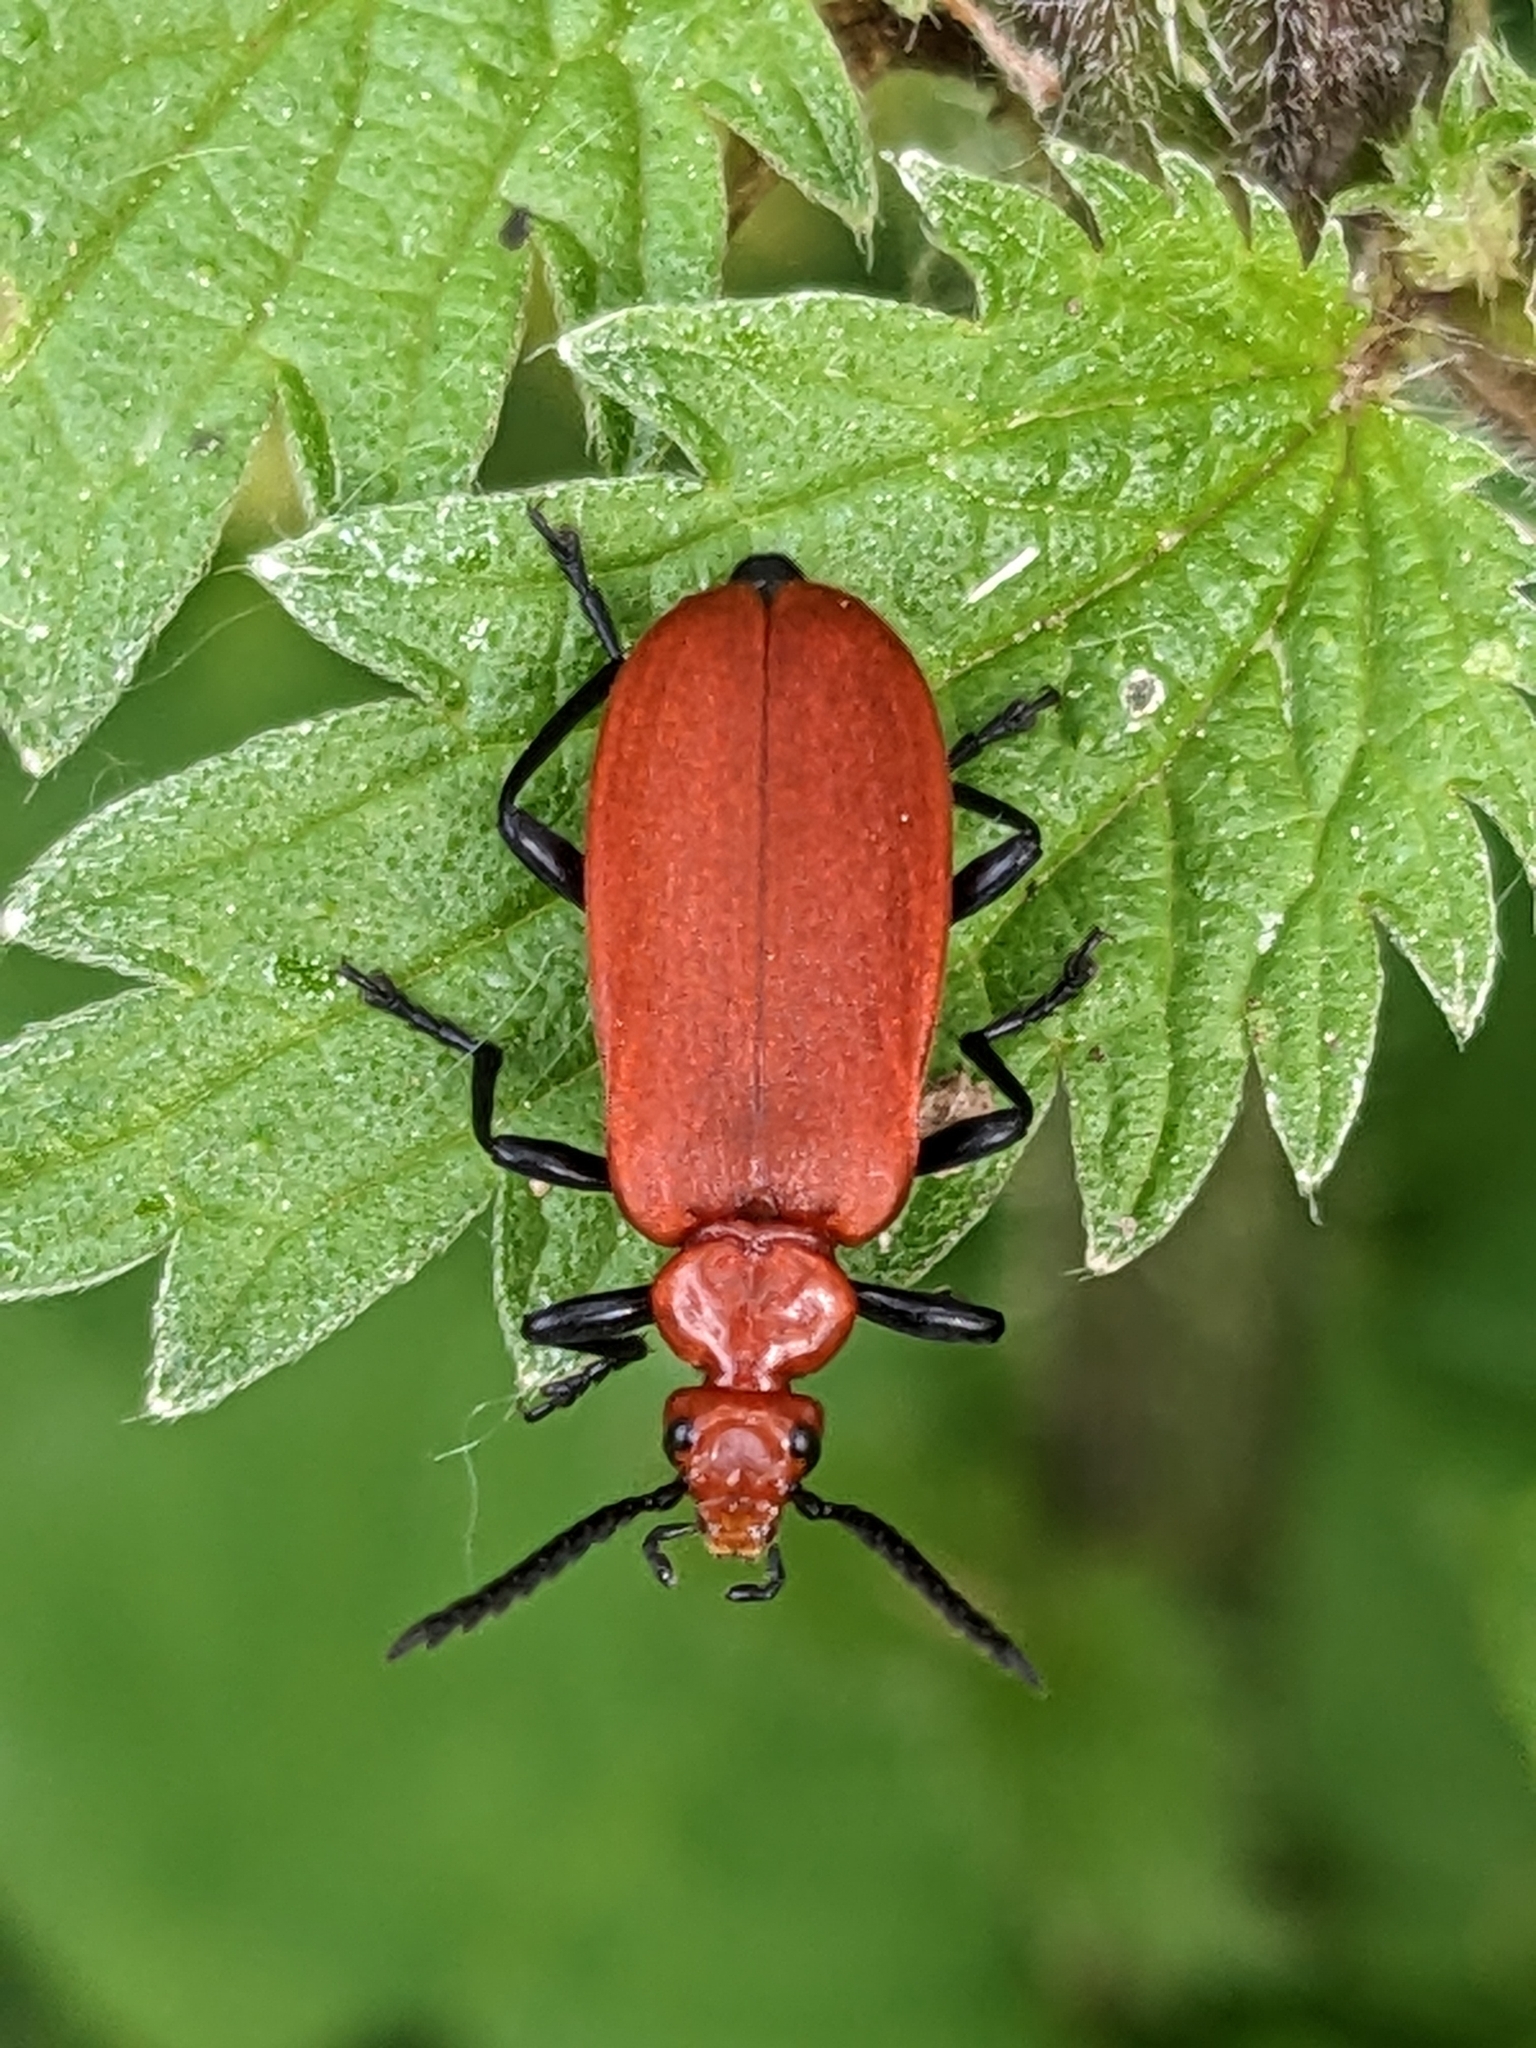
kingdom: Animalia
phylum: Arthropoda
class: Insecta
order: Coleoptera
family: Pyrochroidae
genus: Pyrochroa
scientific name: Pyrochroa serraticornis
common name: Red-headed cardinal beetle
